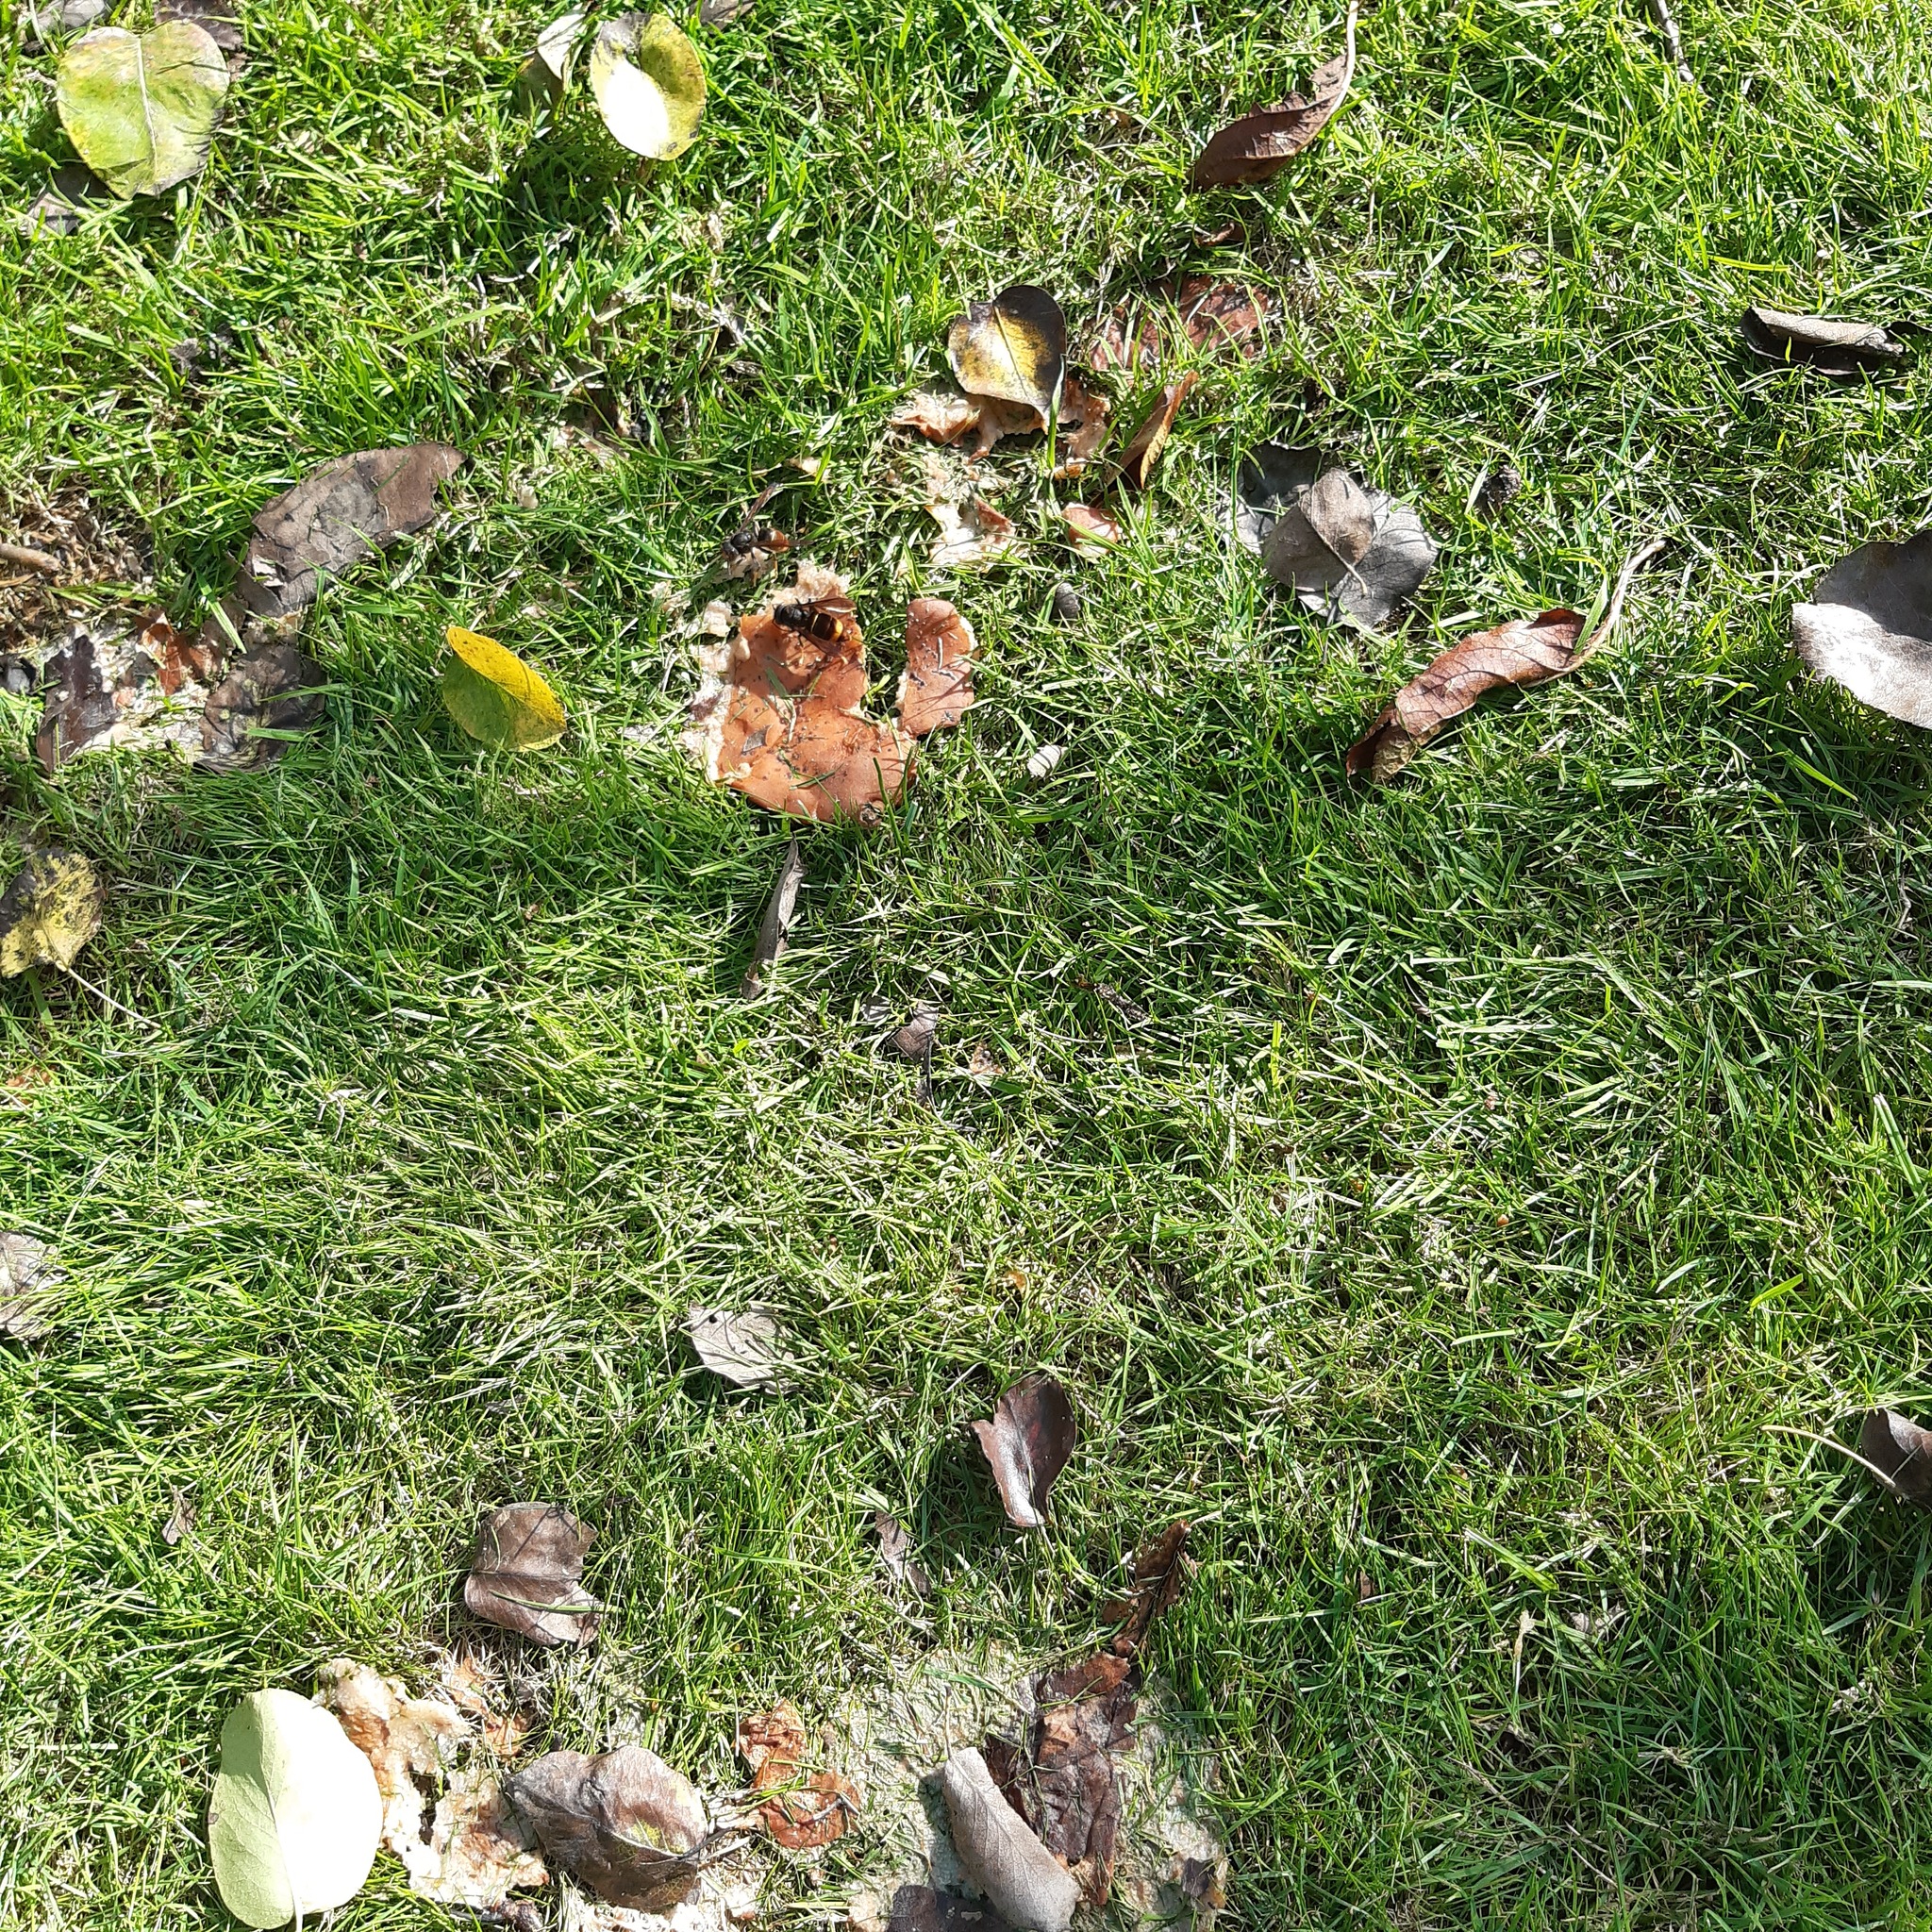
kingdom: Animalia
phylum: Arthropoda
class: Insecta
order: Hymenoptera
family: Vespidae
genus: Vespa
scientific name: Vespa velutina
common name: Asian hornet
